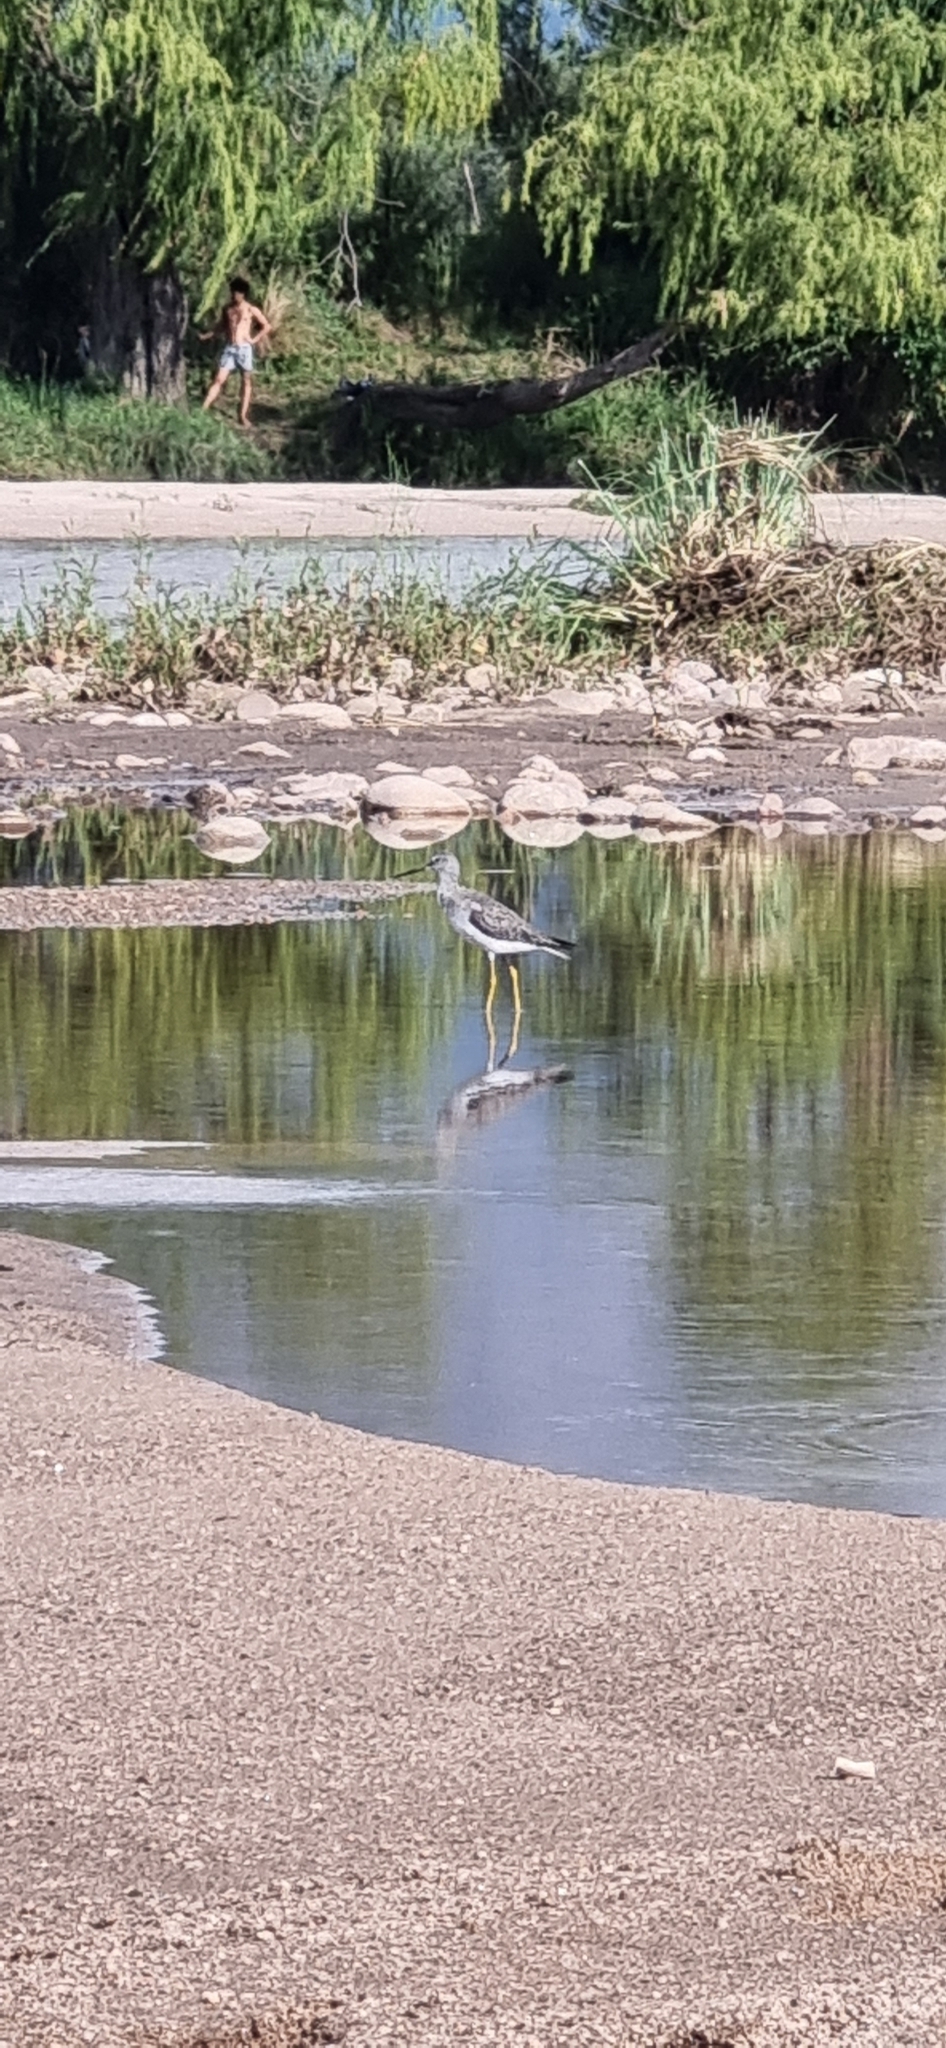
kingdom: Animalia
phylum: Chordata
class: Aves
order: Charadriiformes
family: Scolopacidae
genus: Tringa
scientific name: Tringa melanoleuca
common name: Greater yellowlegs
